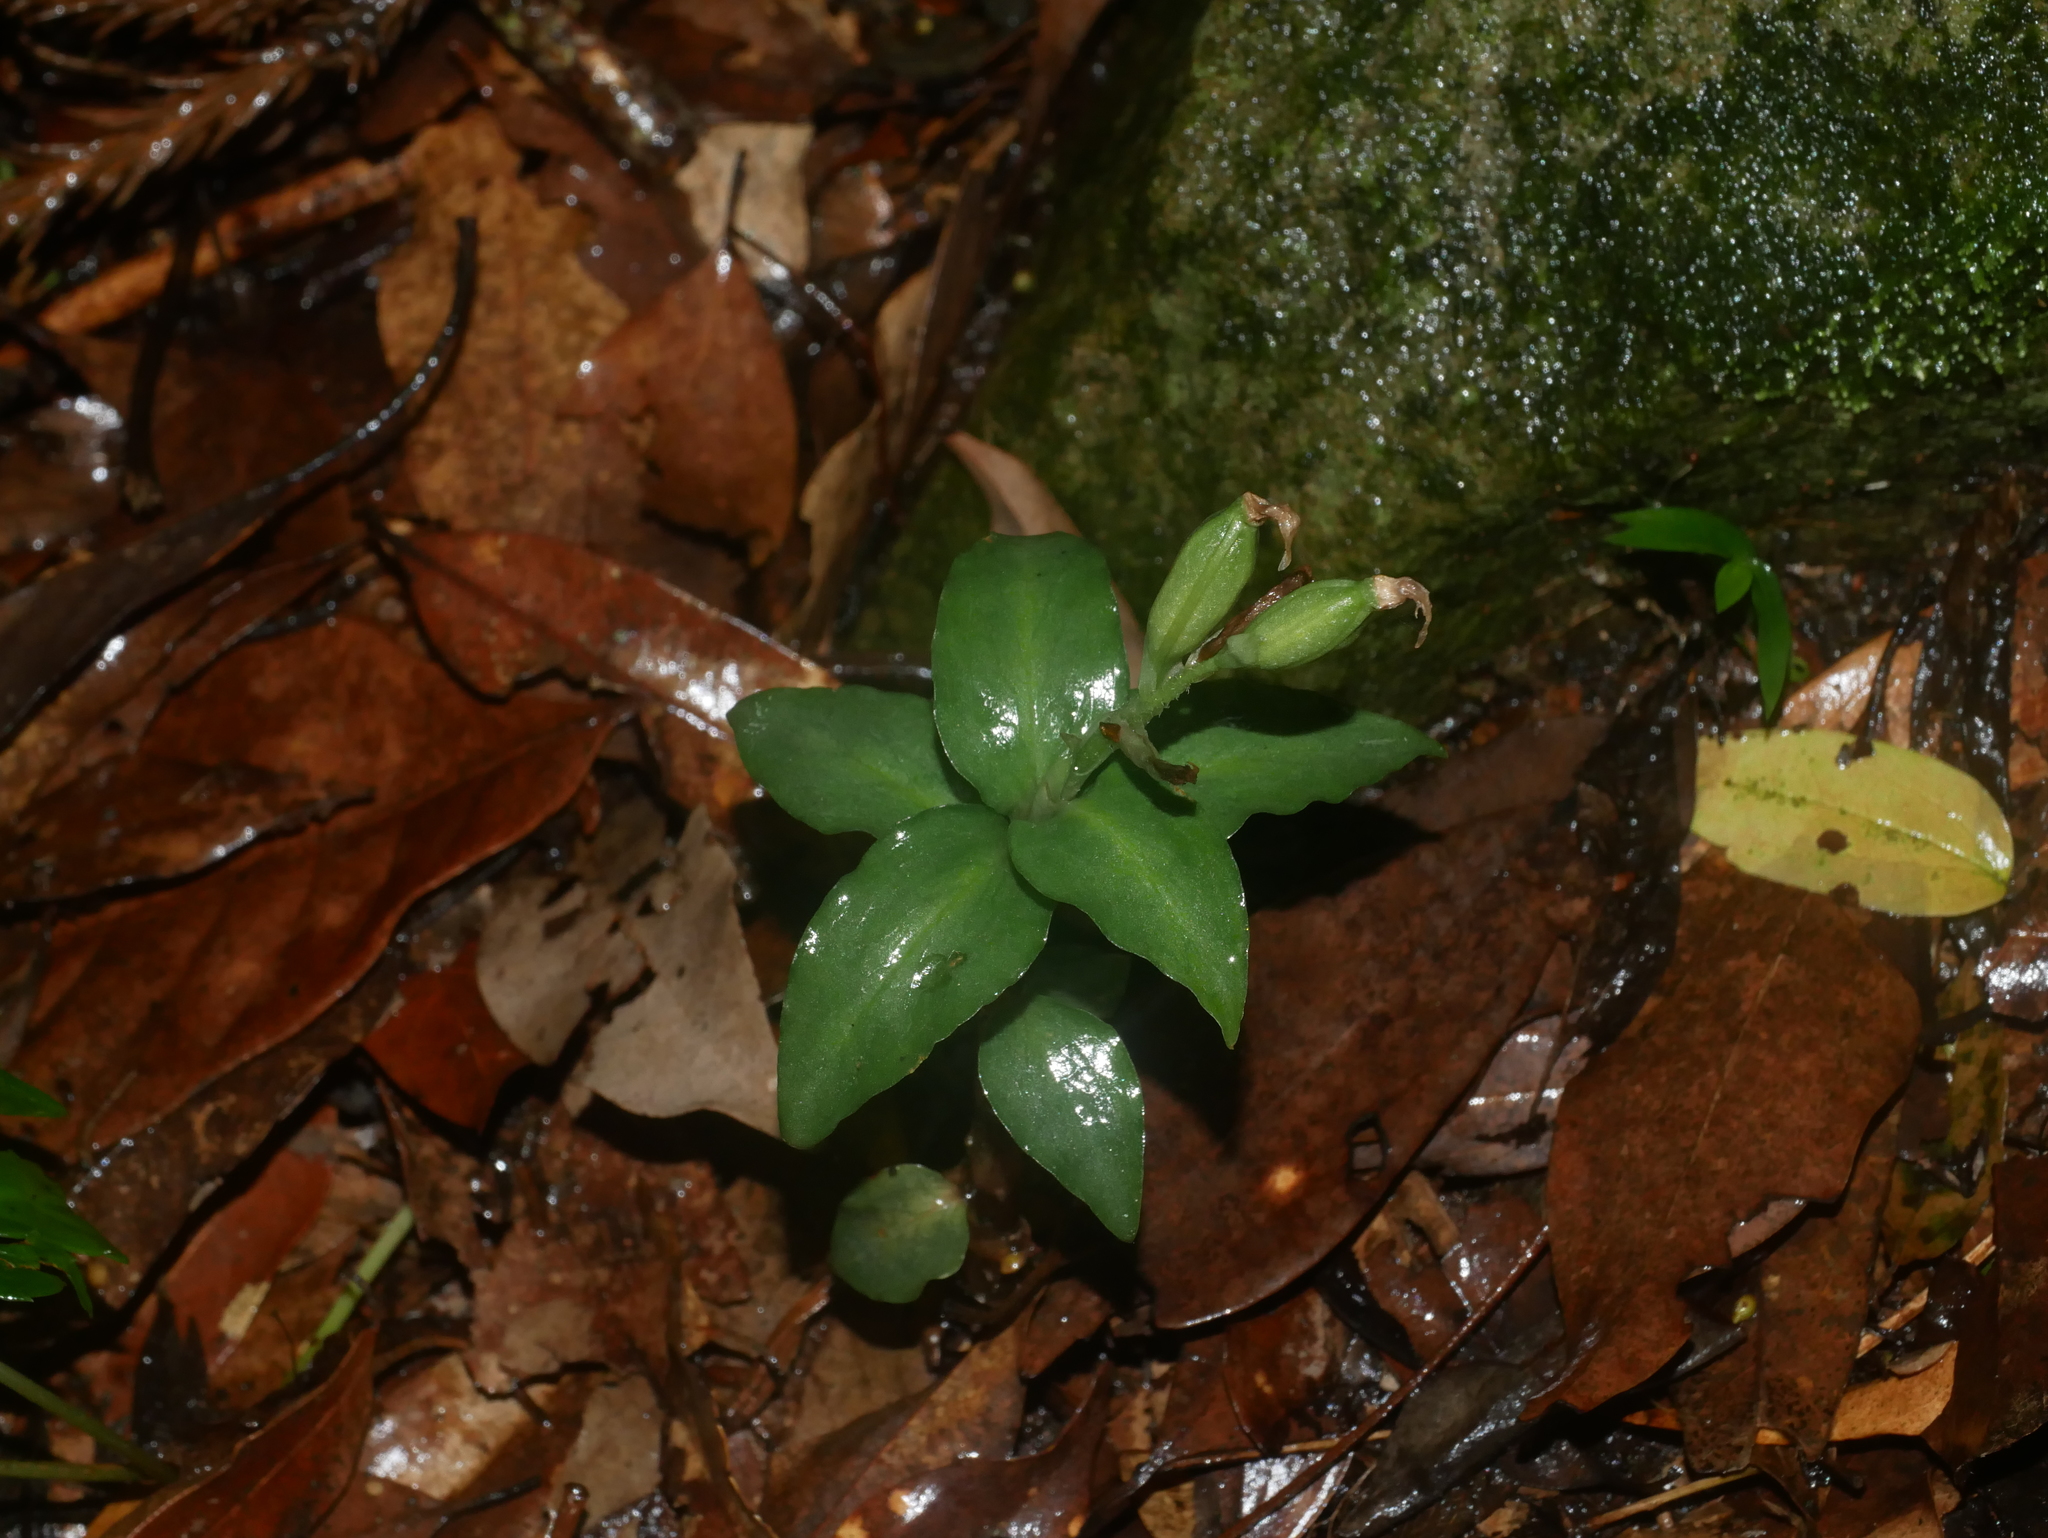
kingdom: Plantae
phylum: Tracheophyta
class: Liliopsida
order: Asparagales
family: Orchidaceae
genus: Cheirostylis
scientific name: Cheirostylis octodactyla
